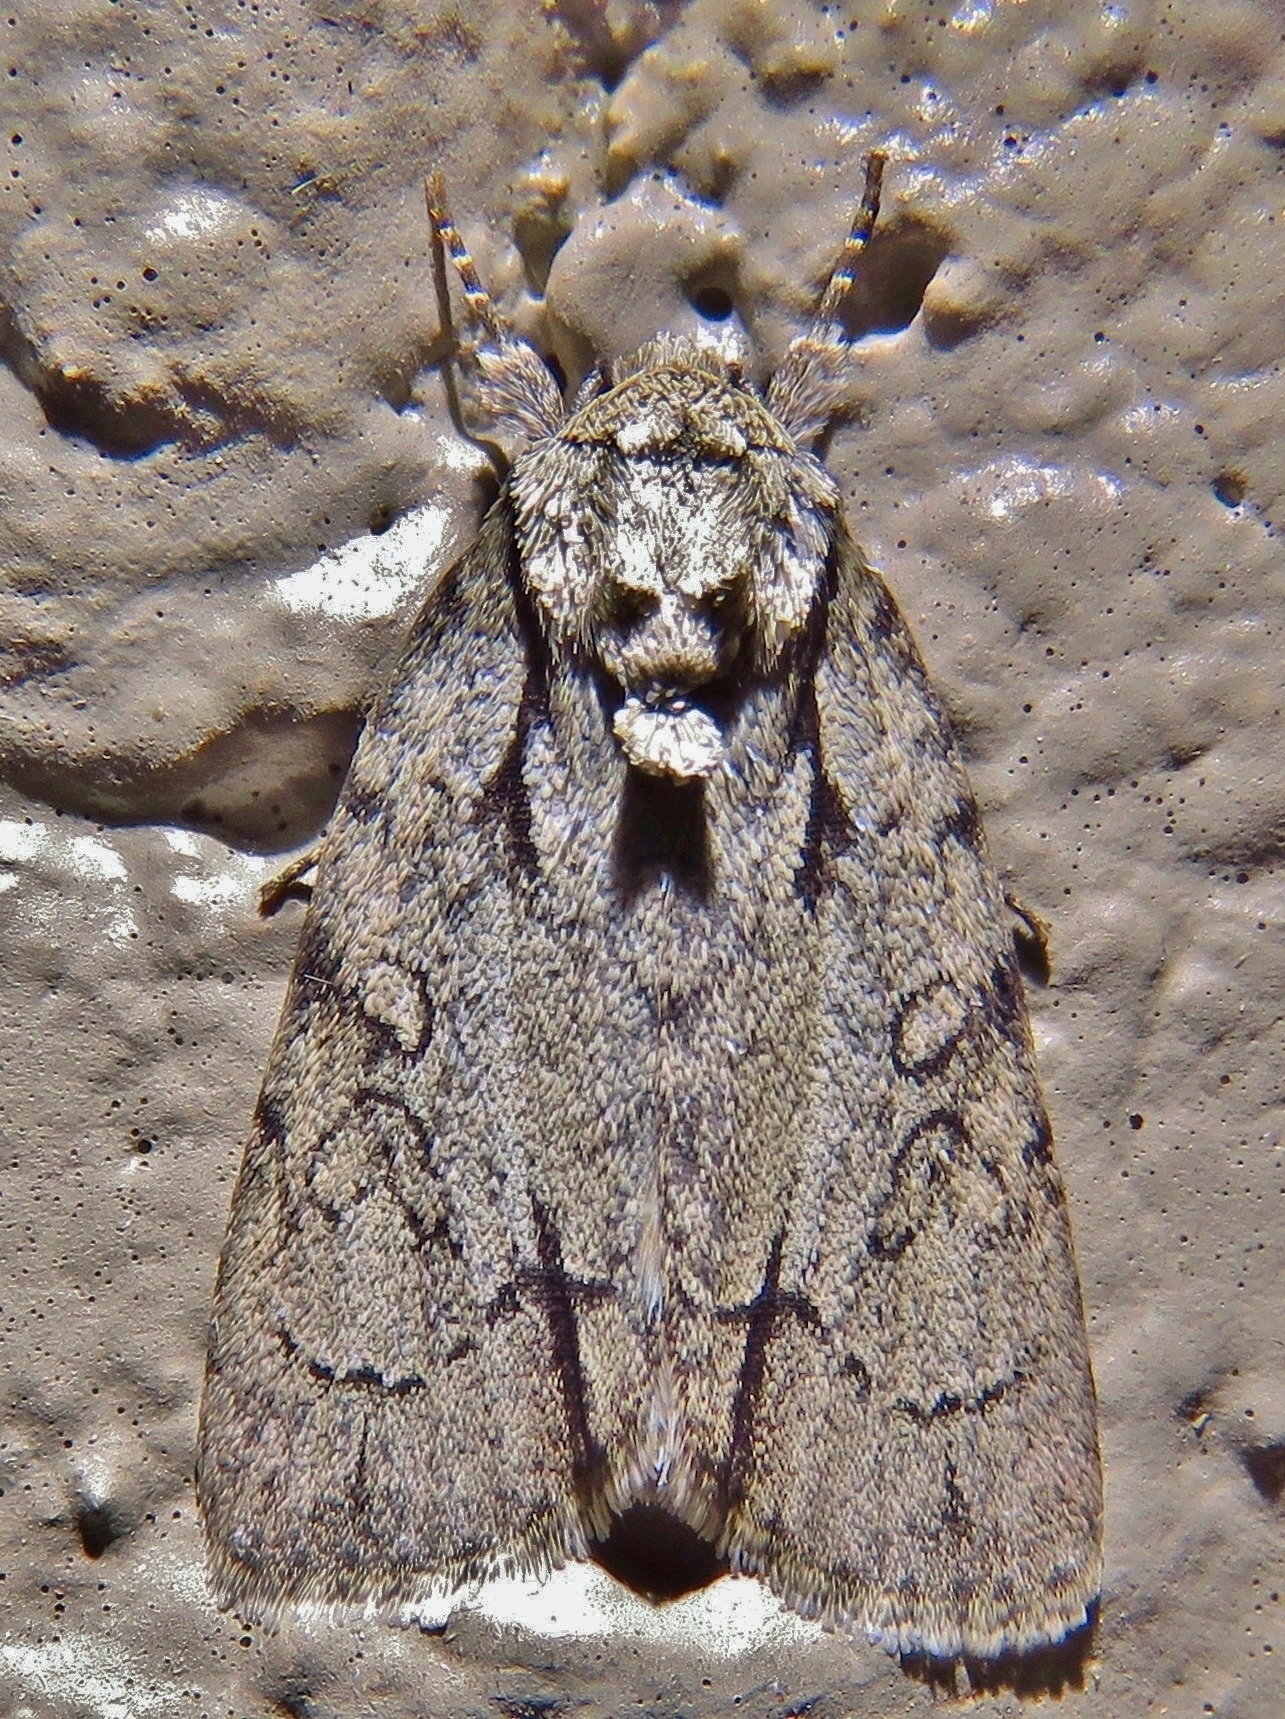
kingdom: Animalia
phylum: Arthropoda
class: Insecta
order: Lepidoptera
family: Noctuidae
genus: Acronicta
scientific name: Acronicta vinnula
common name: Delightful dagger
